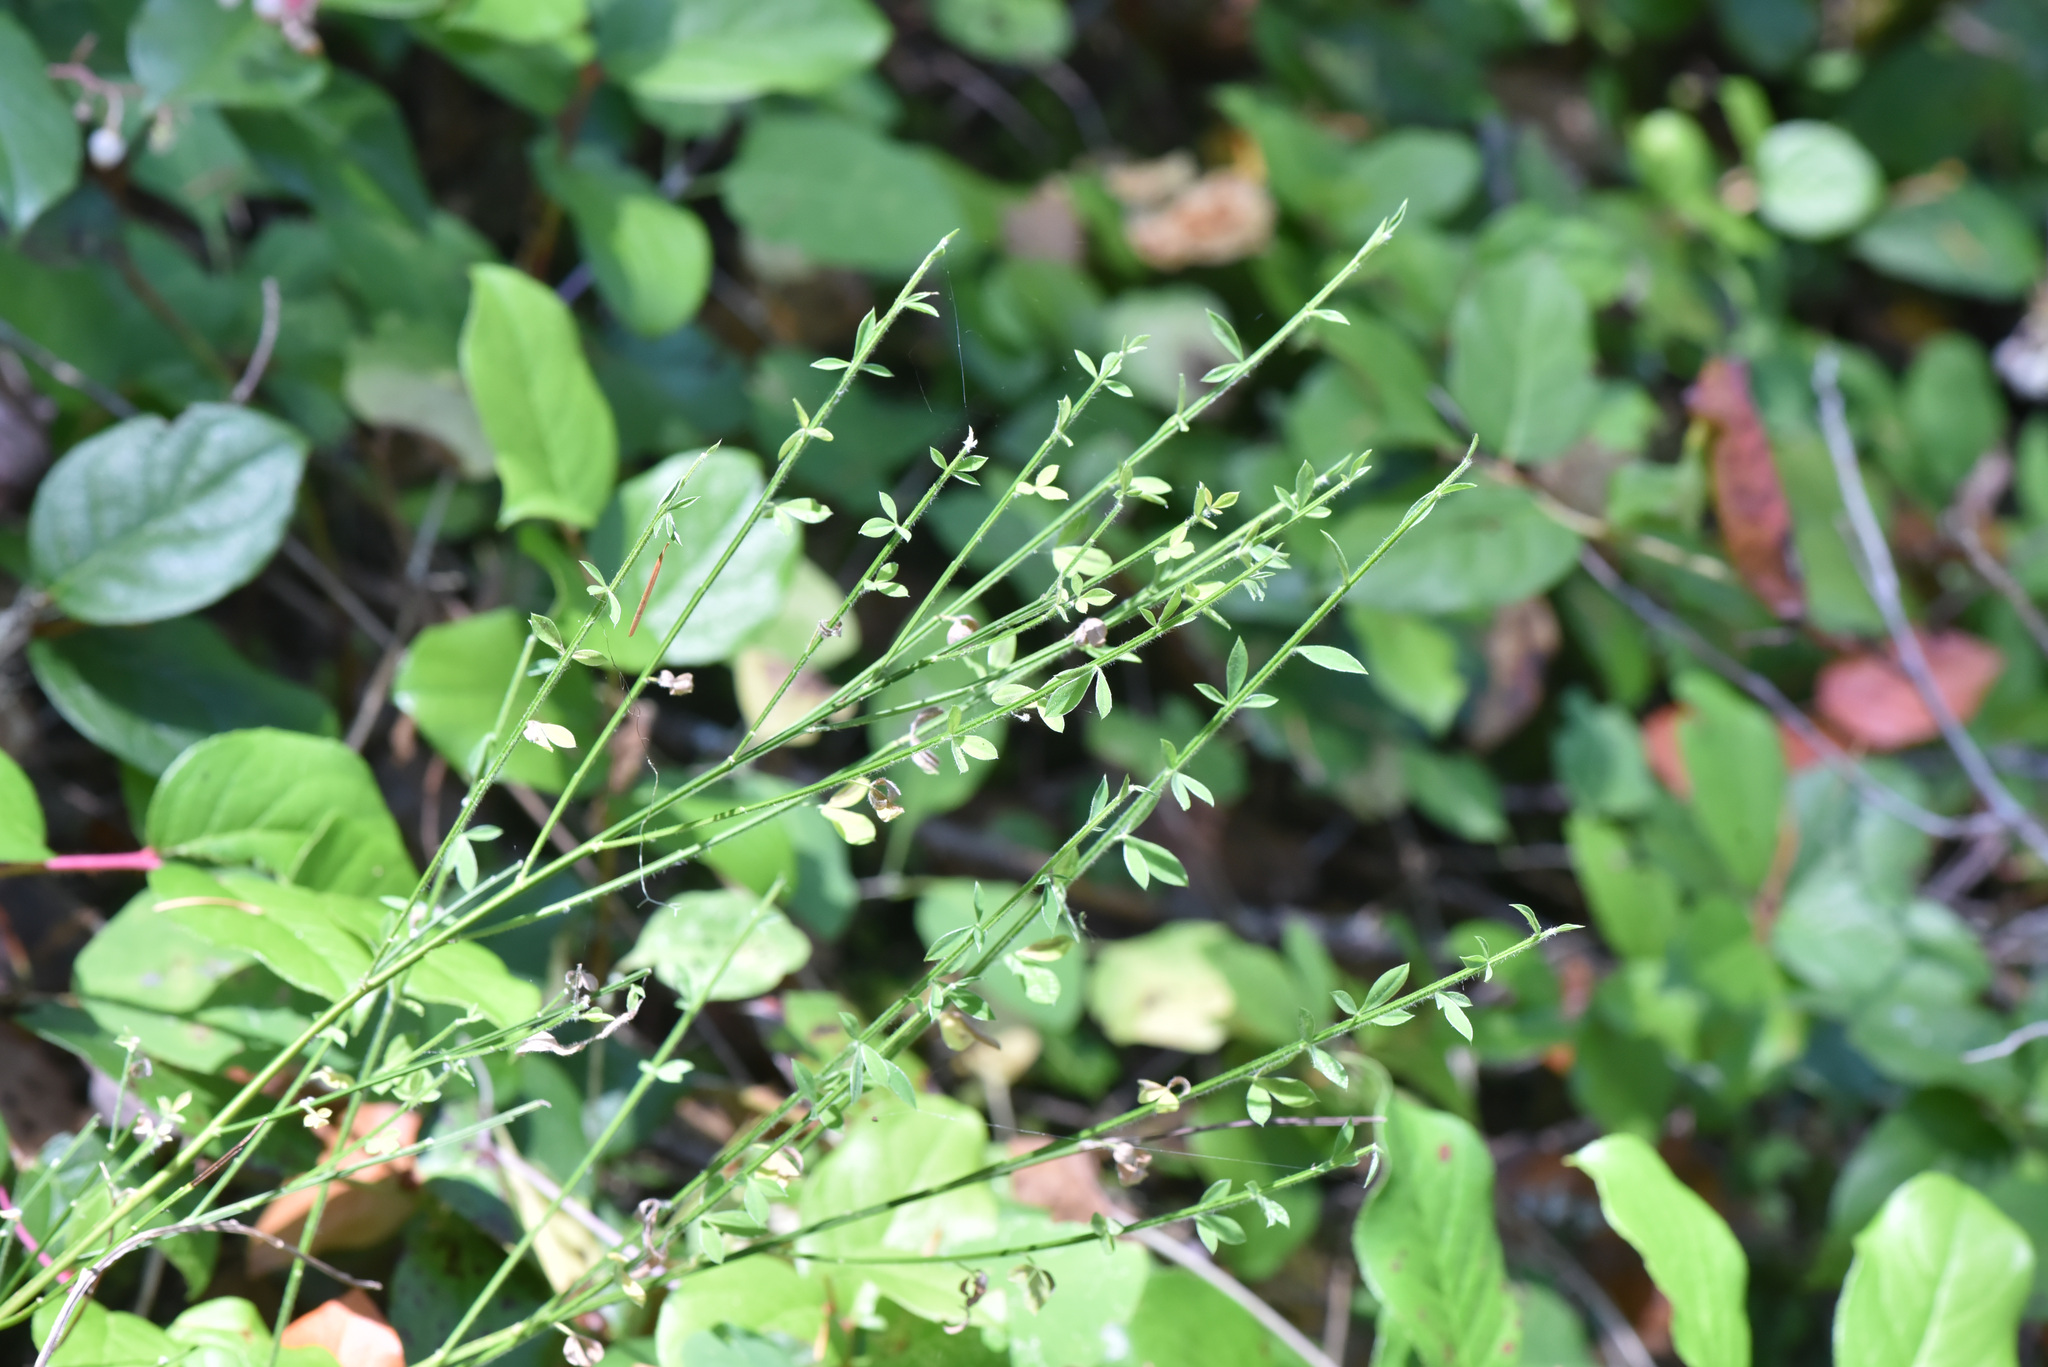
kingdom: Plantae
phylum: Tracheophyta
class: Magnoliopsida
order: Fabales
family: Fabaceae
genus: Cytisus
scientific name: Cytisus scoparius
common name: Scotch broom
